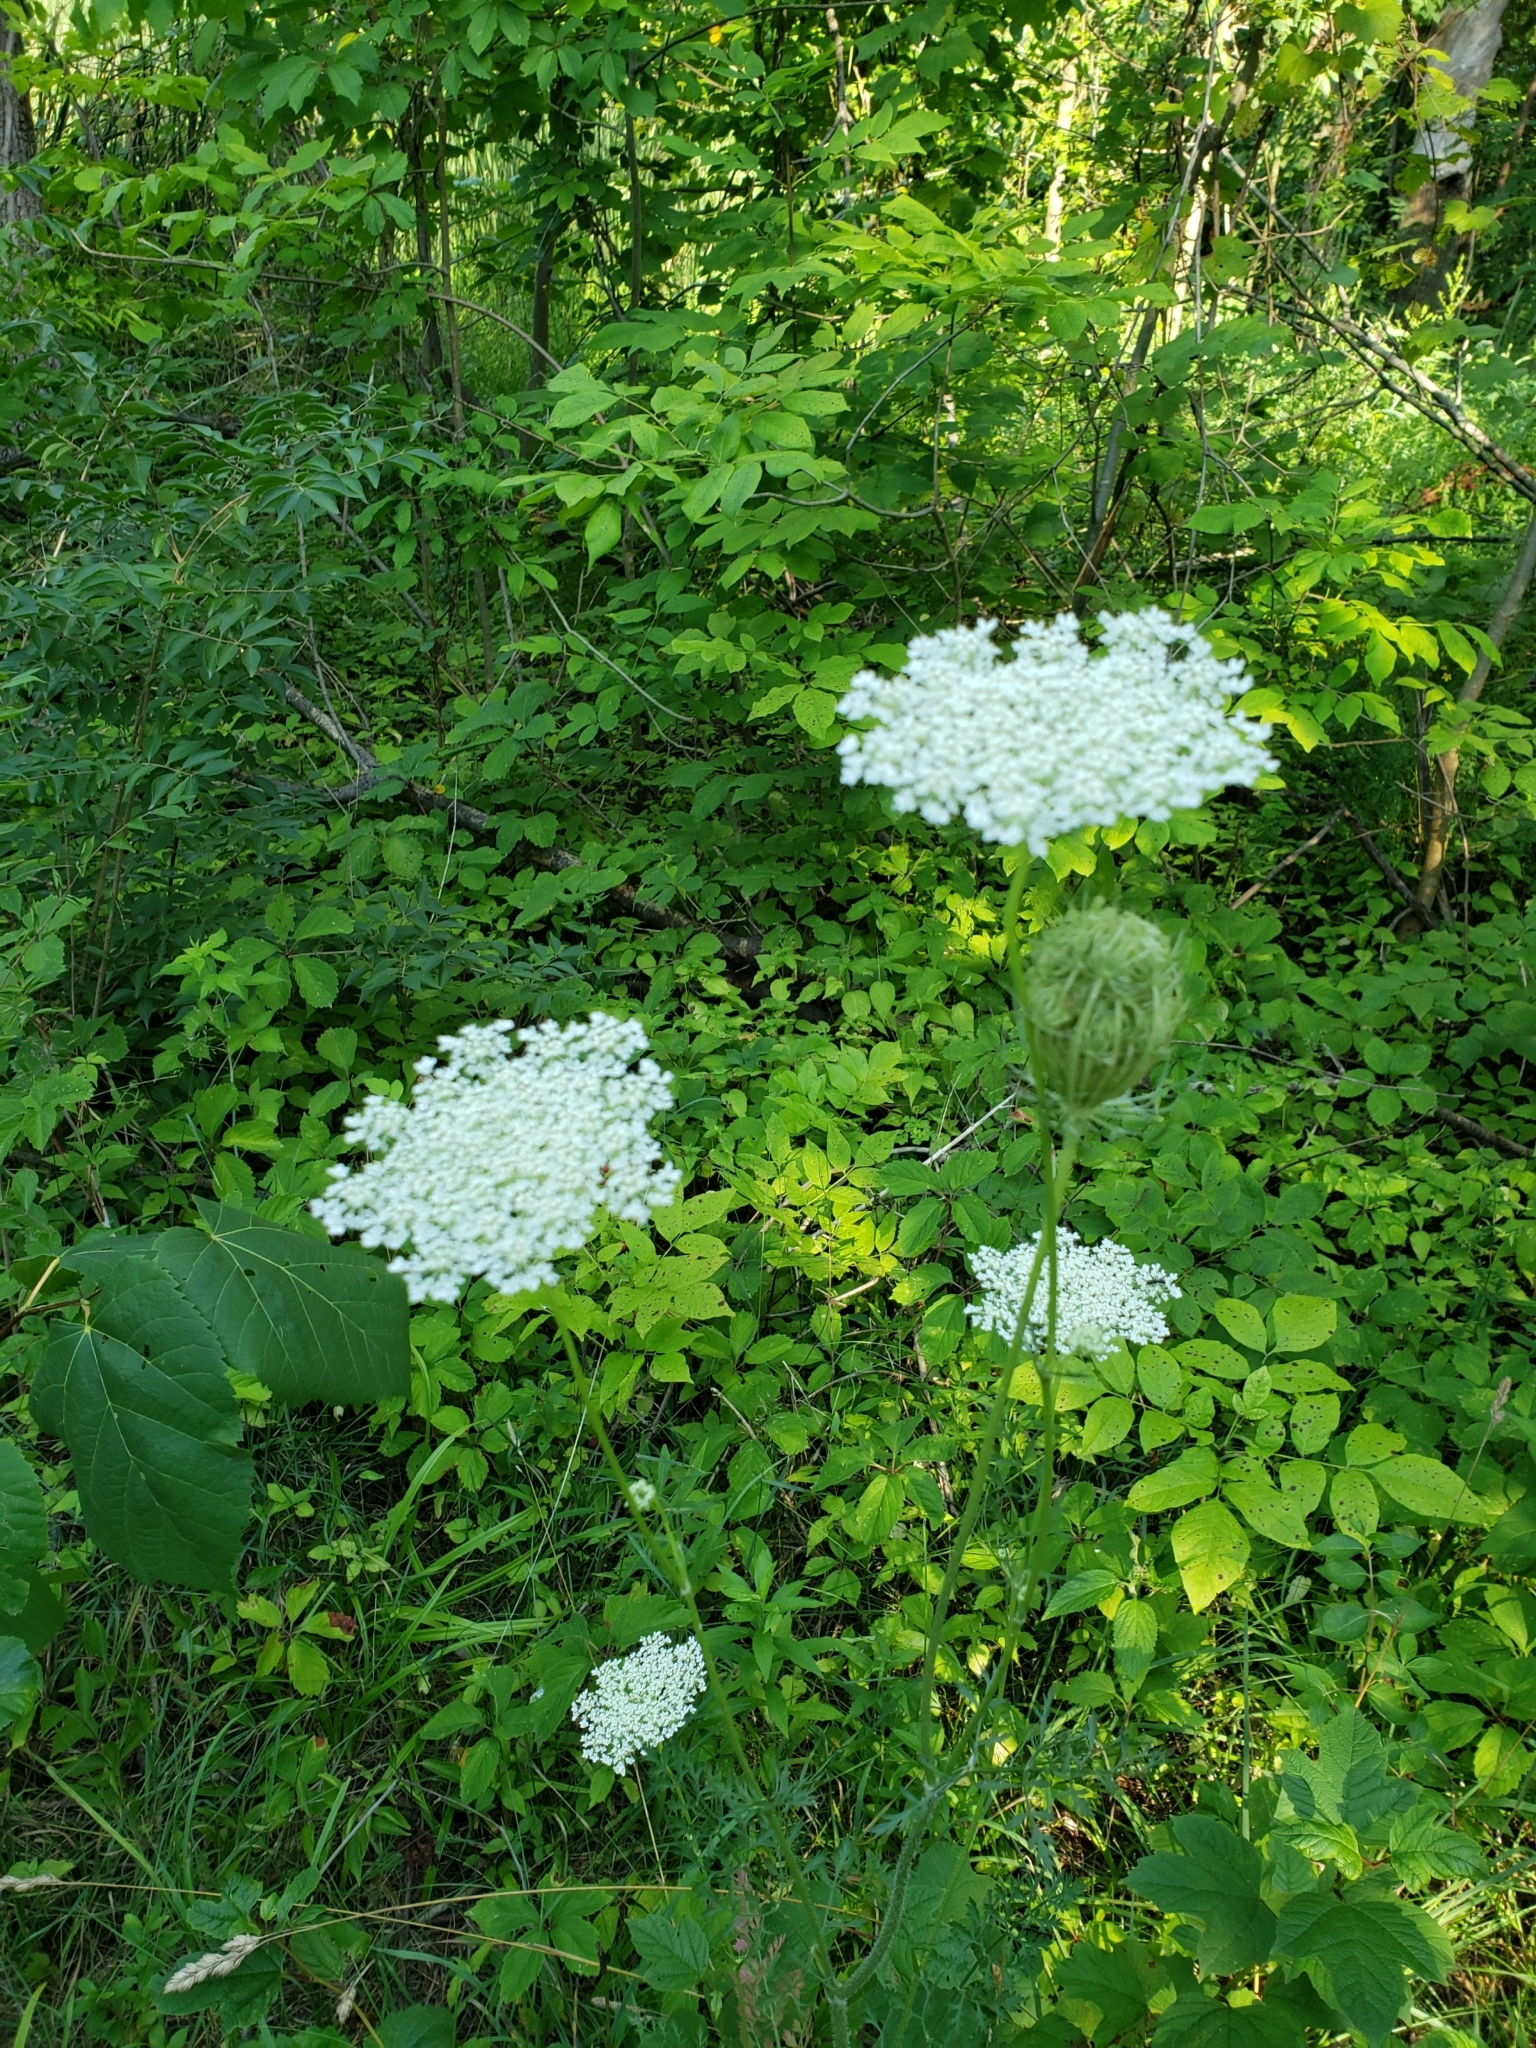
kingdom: Plantae
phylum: Tracheophyta
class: Magnoliopsida
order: Apiales
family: Apiaceae
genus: Daucus
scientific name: Daucus carota
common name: Wild carrot
